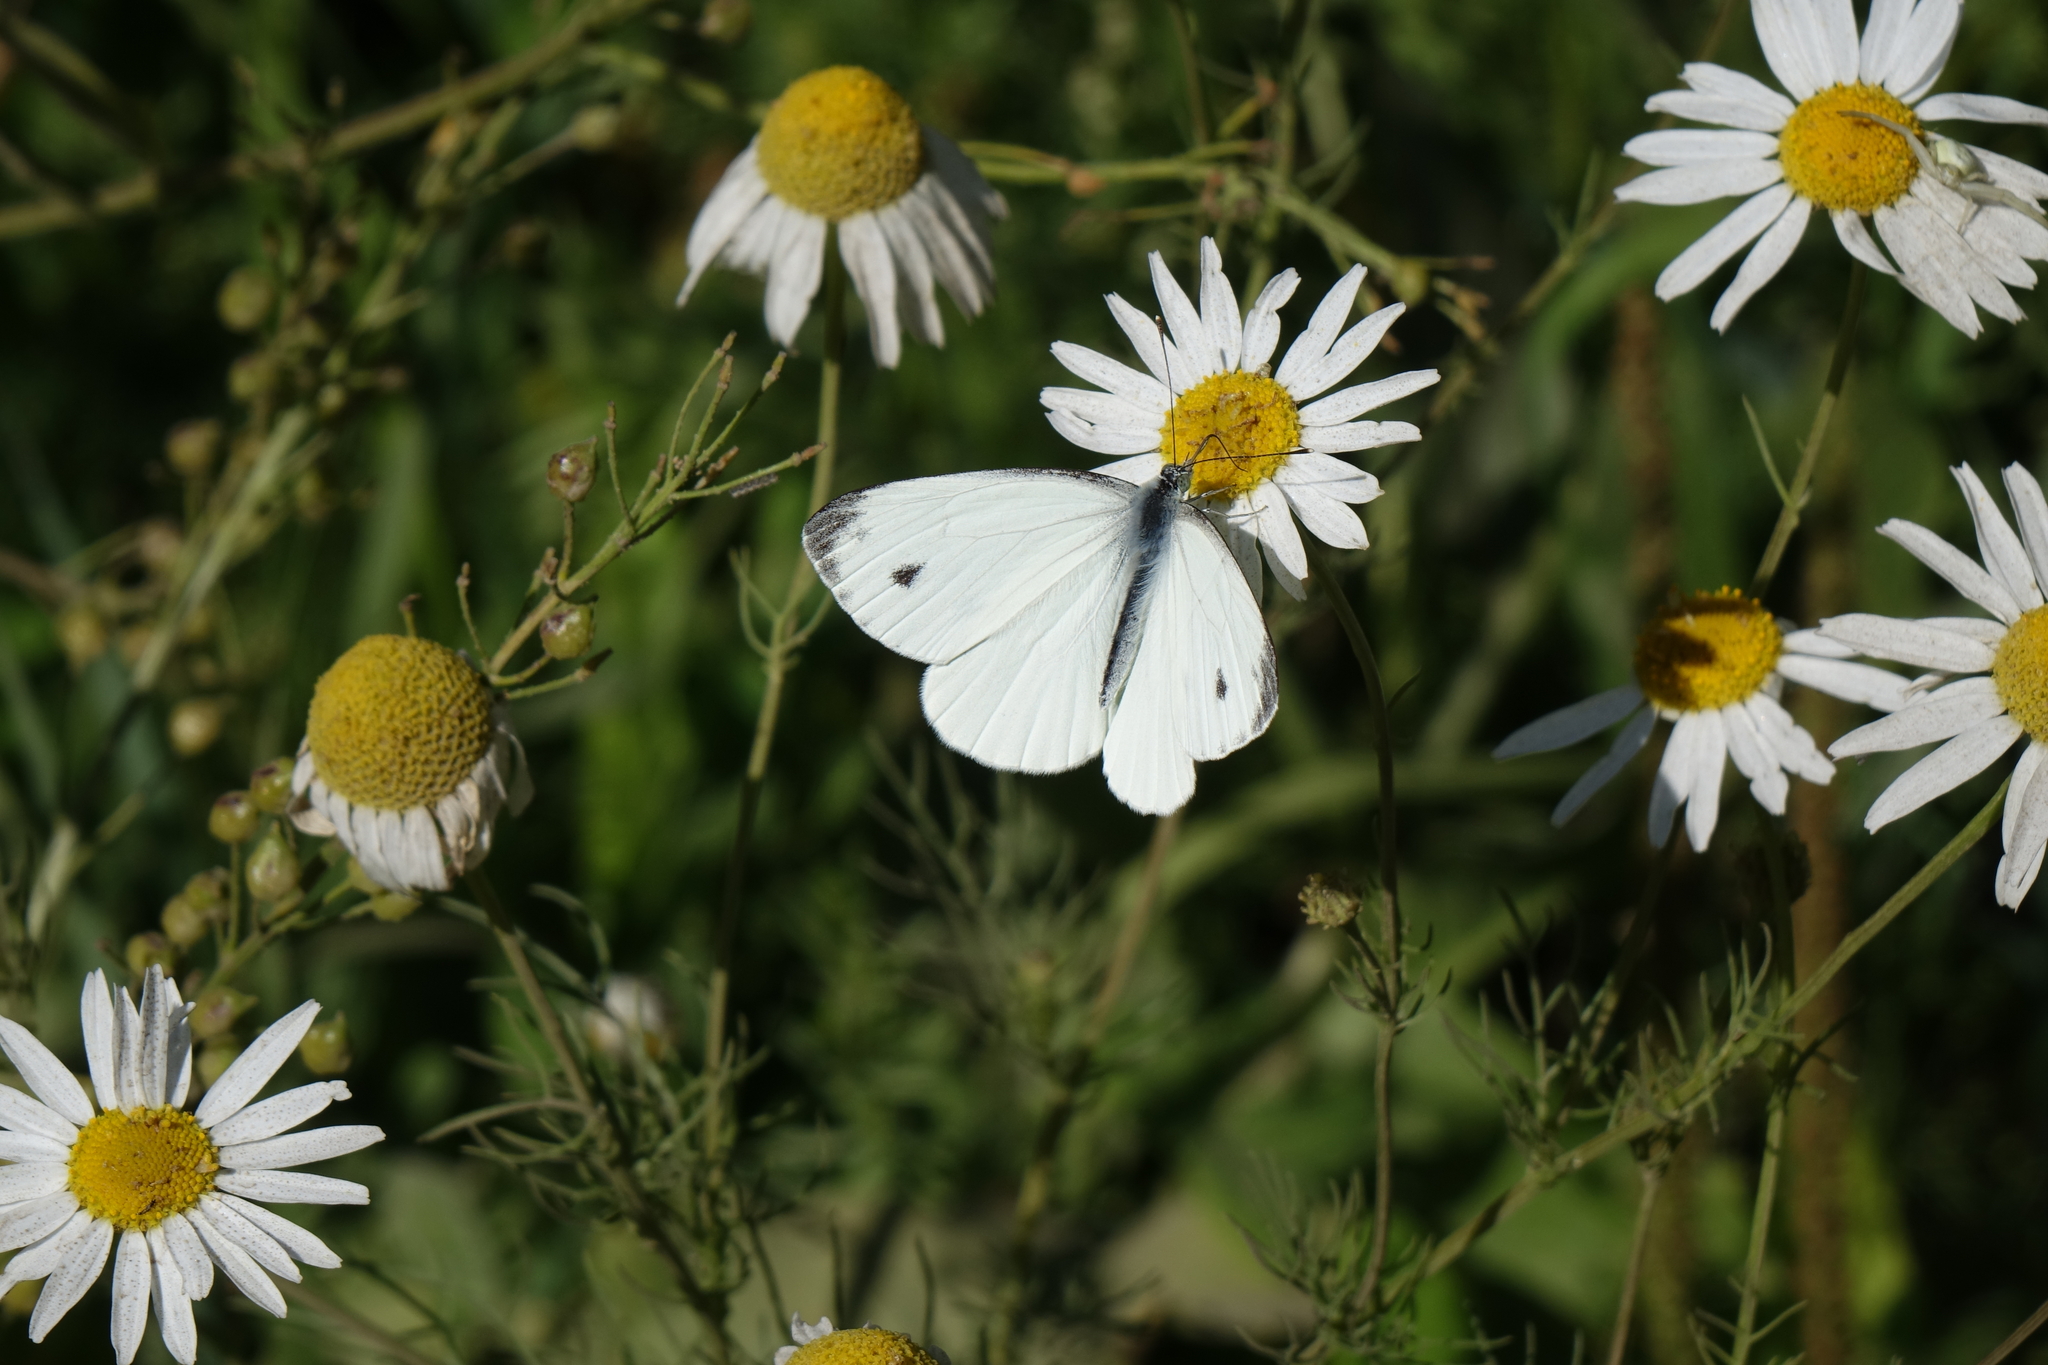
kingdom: Animalia
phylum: Arthropoda
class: Insecta
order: Lepidoptera
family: Pieridae
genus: Pieris
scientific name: Pieris napi
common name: Green-veined white
